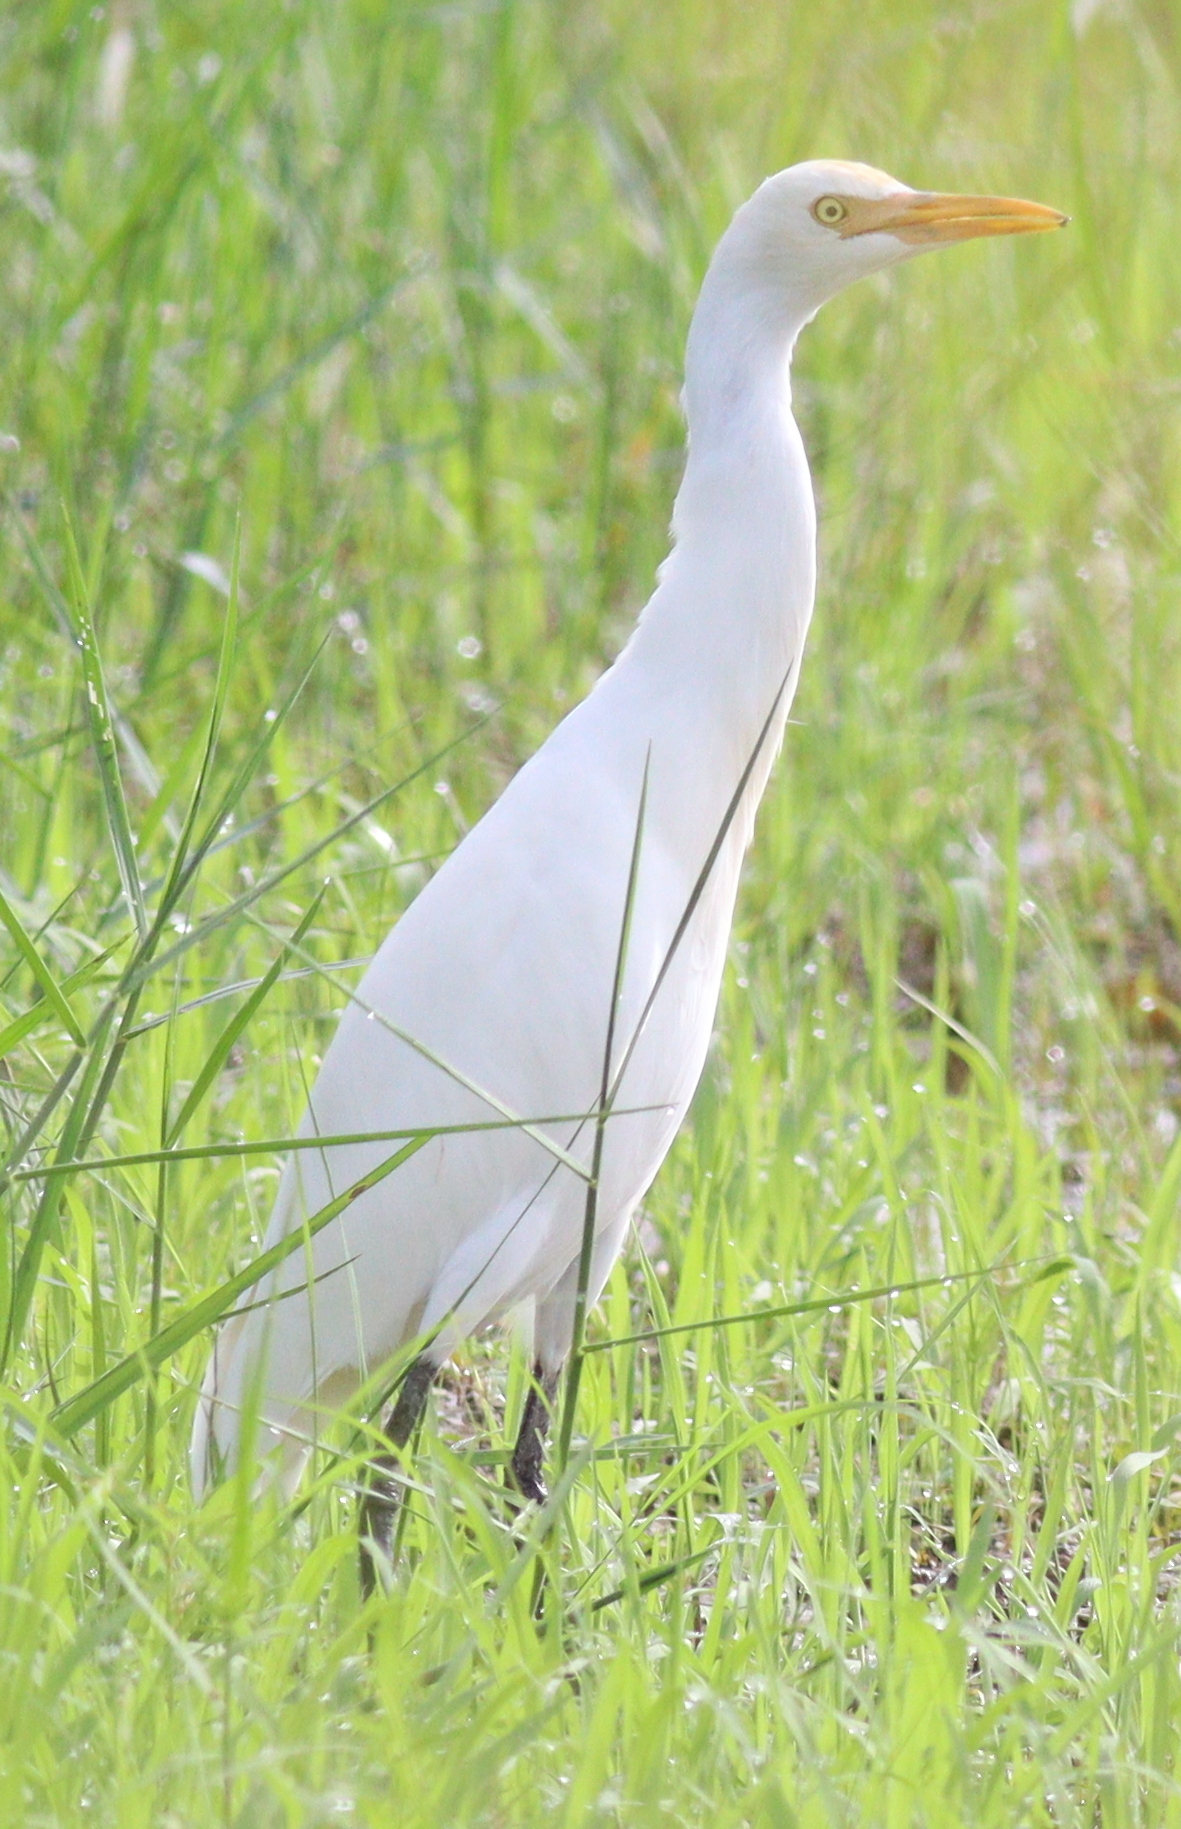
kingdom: Animalia
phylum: Chordata
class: Aves
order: Pelecaniformes
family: Ardeidae
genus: Bubulcus
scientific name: Bubulcus coromandus
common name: Eastern cattle egret
